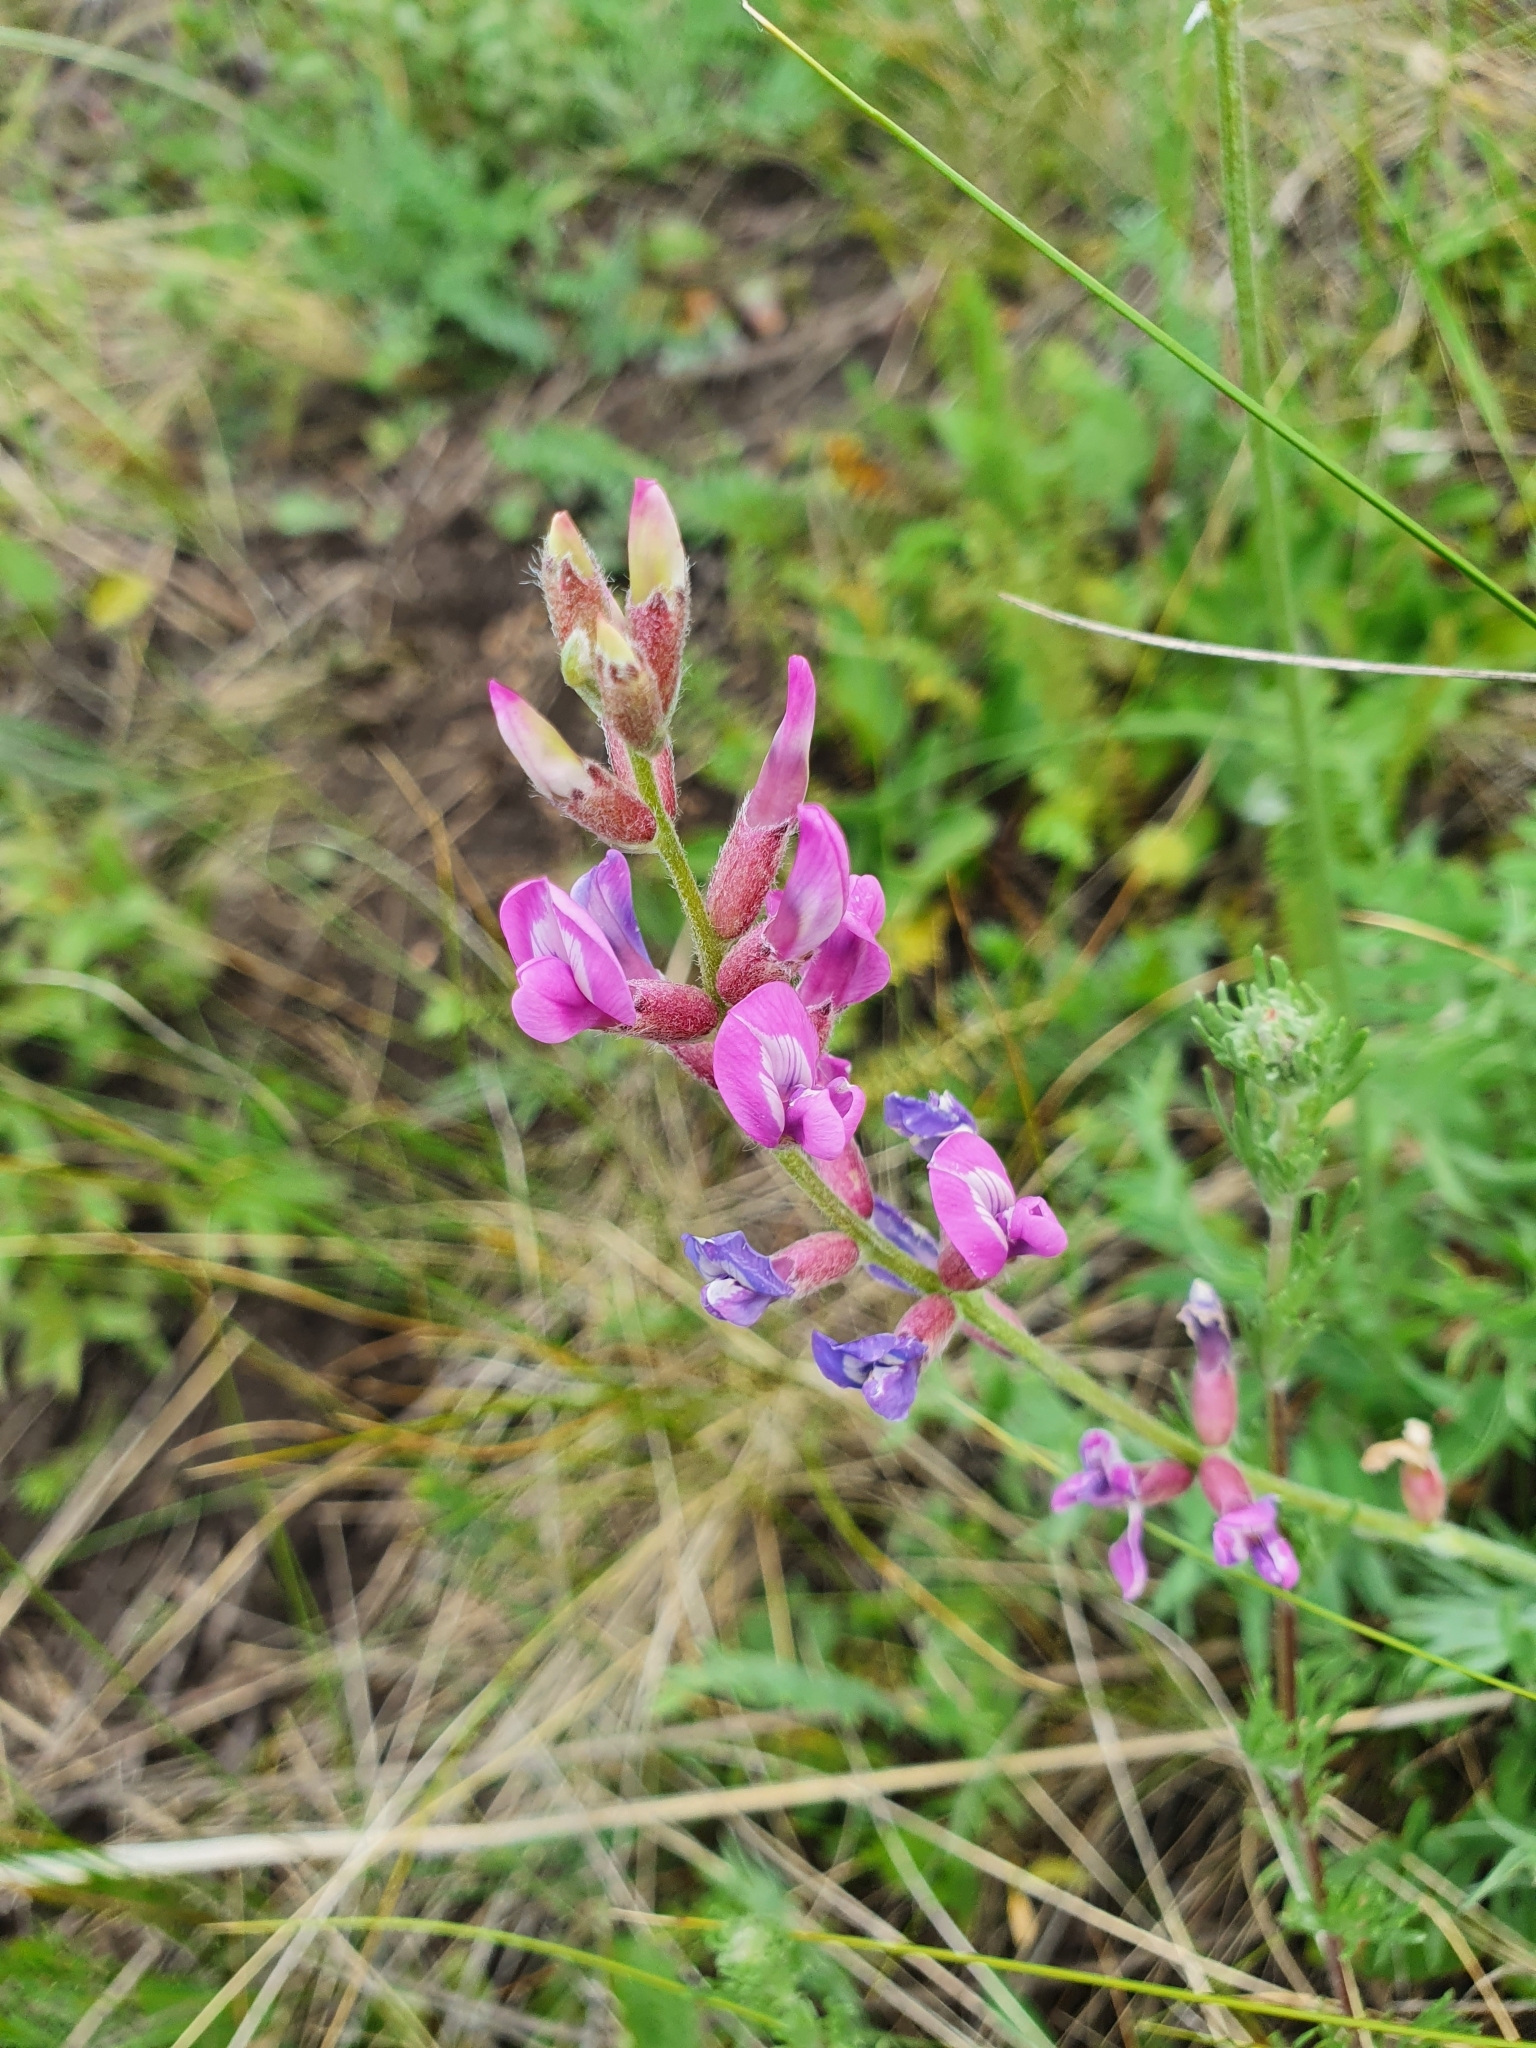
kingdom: Plantae
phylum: Tracheophyta
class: Magnoliopsida
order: Fabales
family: Fabaceae
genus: Oxytropis
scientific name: Oxytropis knjazevii
